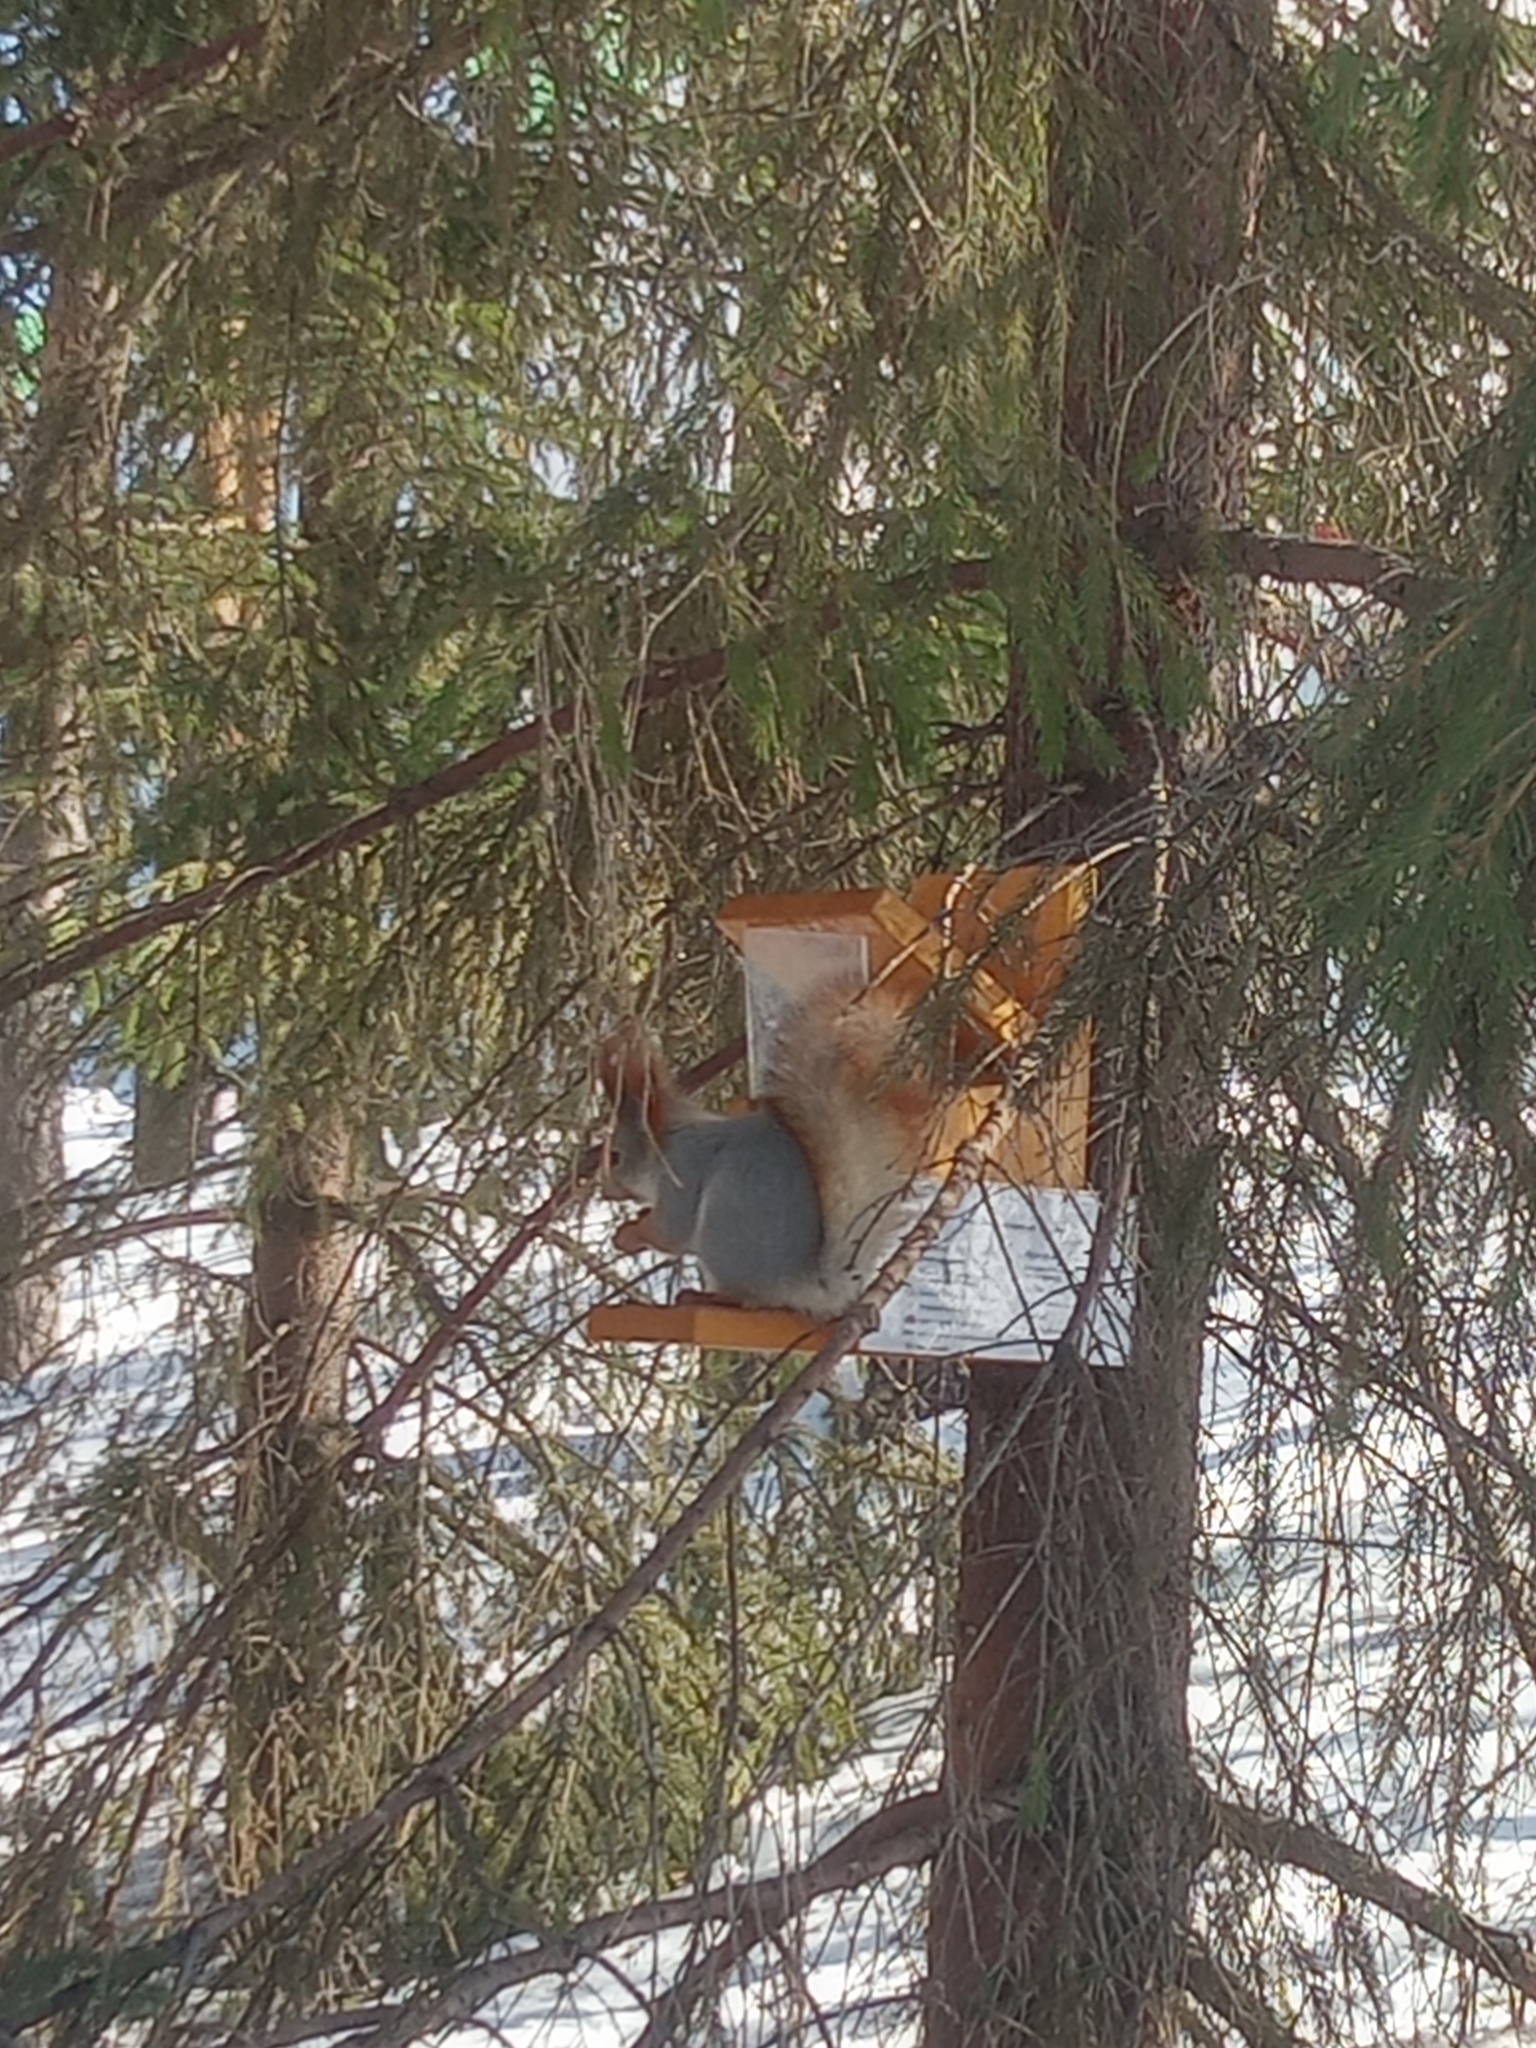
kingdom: Animalia
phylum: Chordata
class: Mammalia
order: Rodentia
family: Sciuridae
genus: Sciurus
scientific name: Sciurus vulgaris
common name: Eurasian red squirrel
